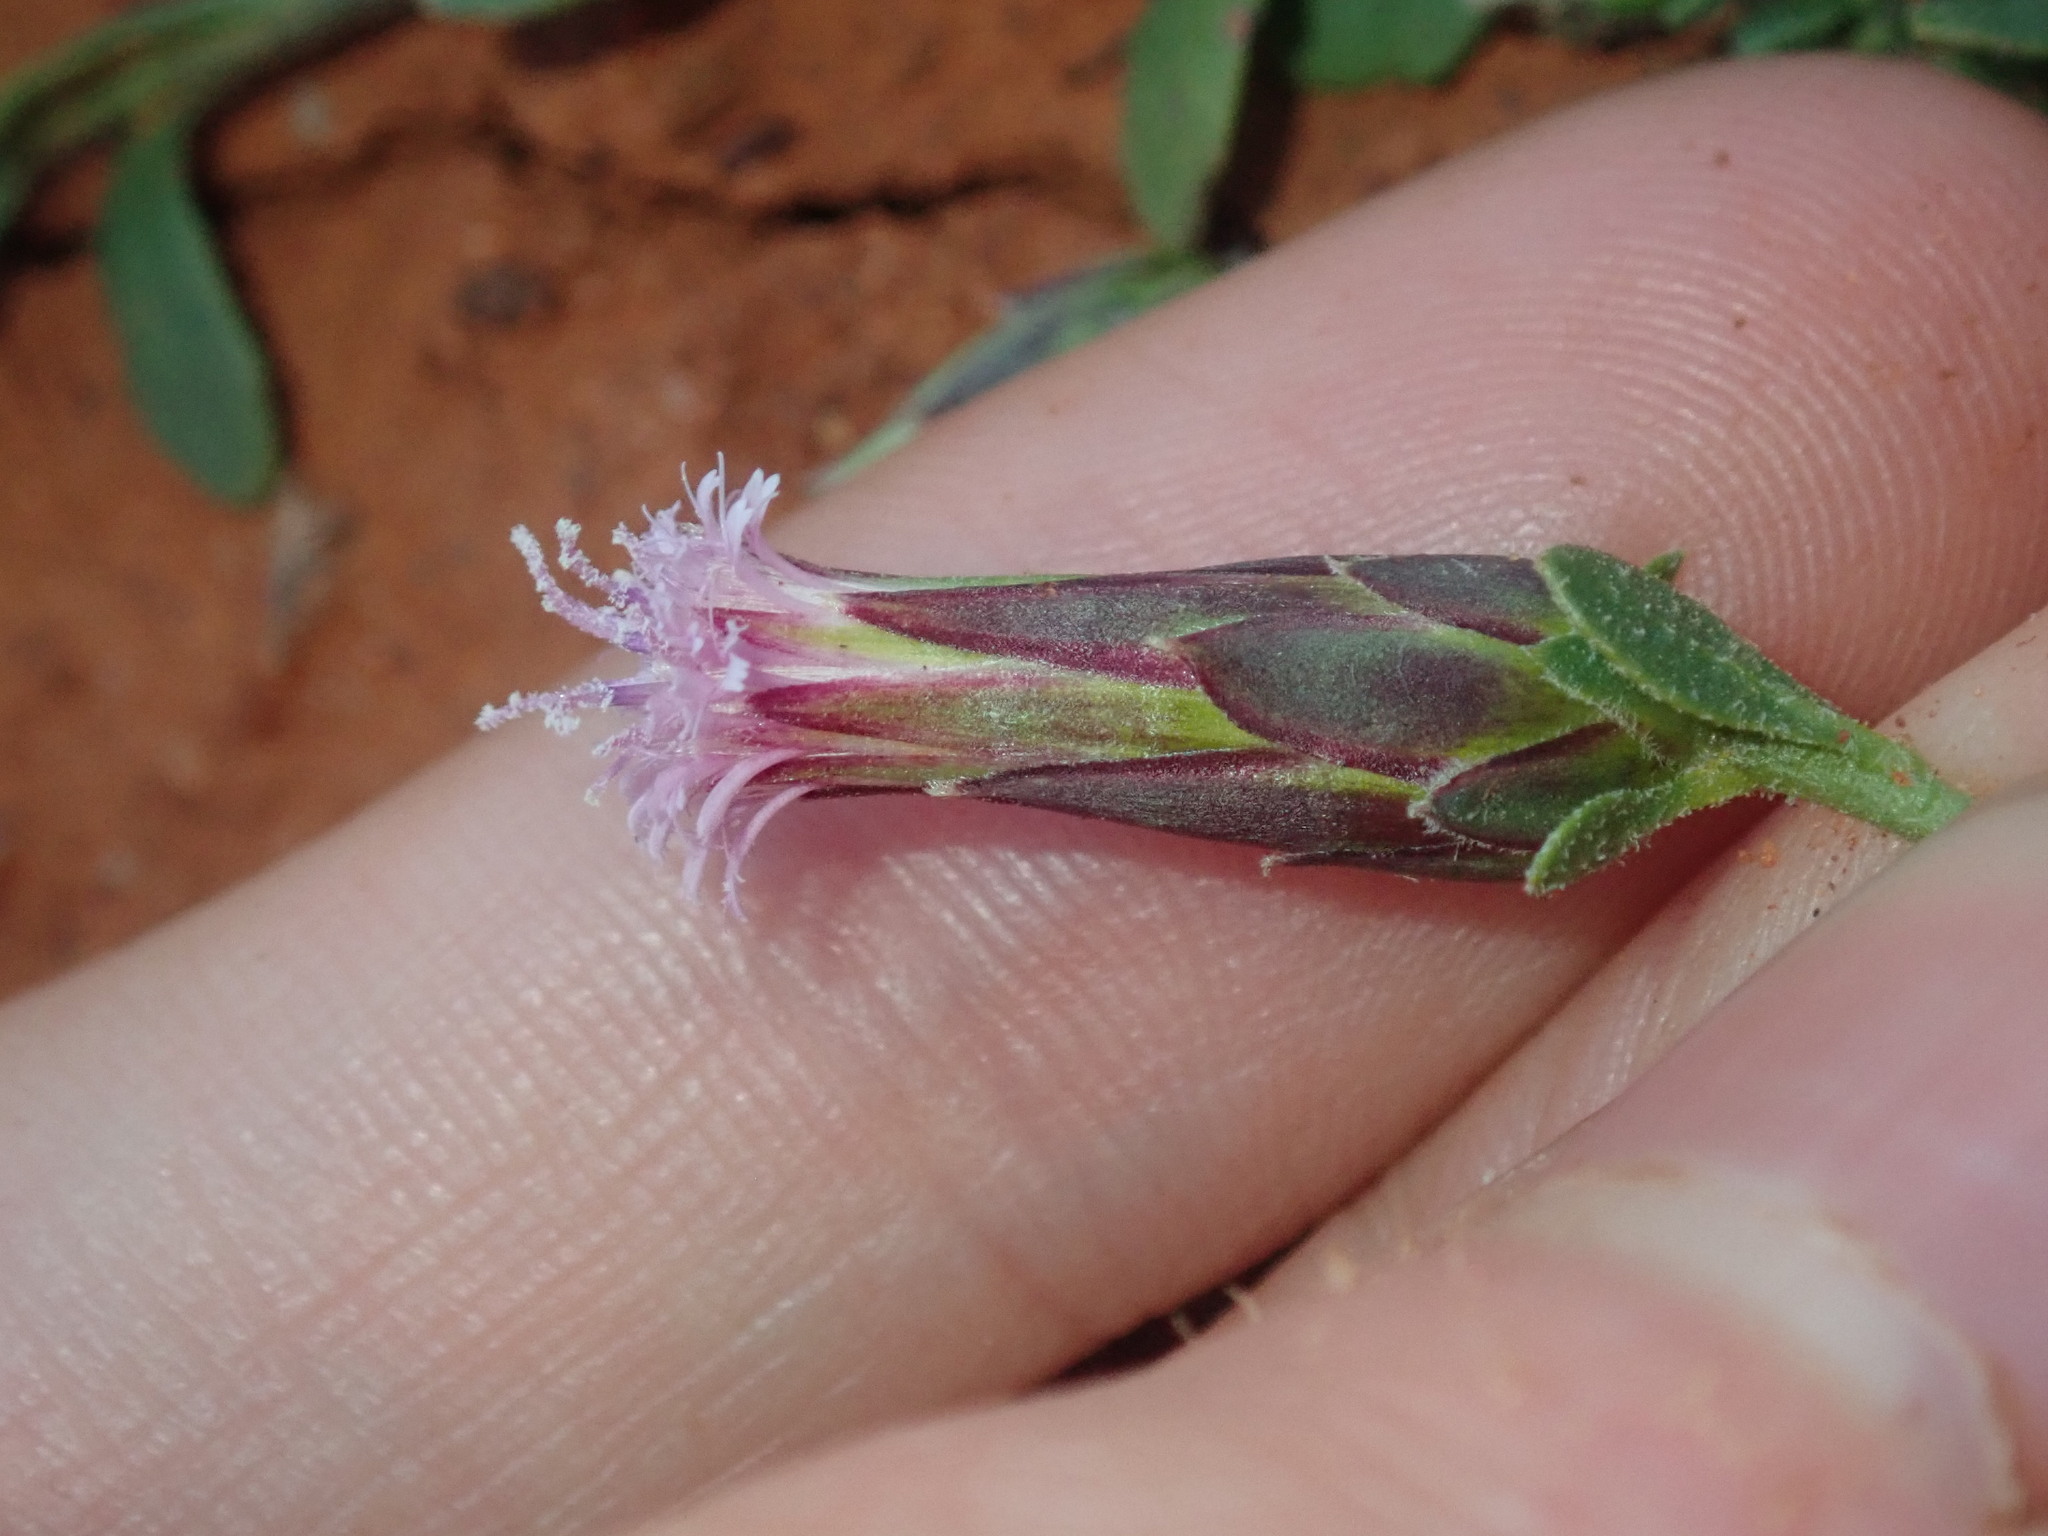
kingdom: Plantae
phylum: Tracheophyta
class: Magnoliopsida
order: Asterales
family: Asteraceae
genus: Streptoglossa
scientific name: Streptoglossa liatroides
